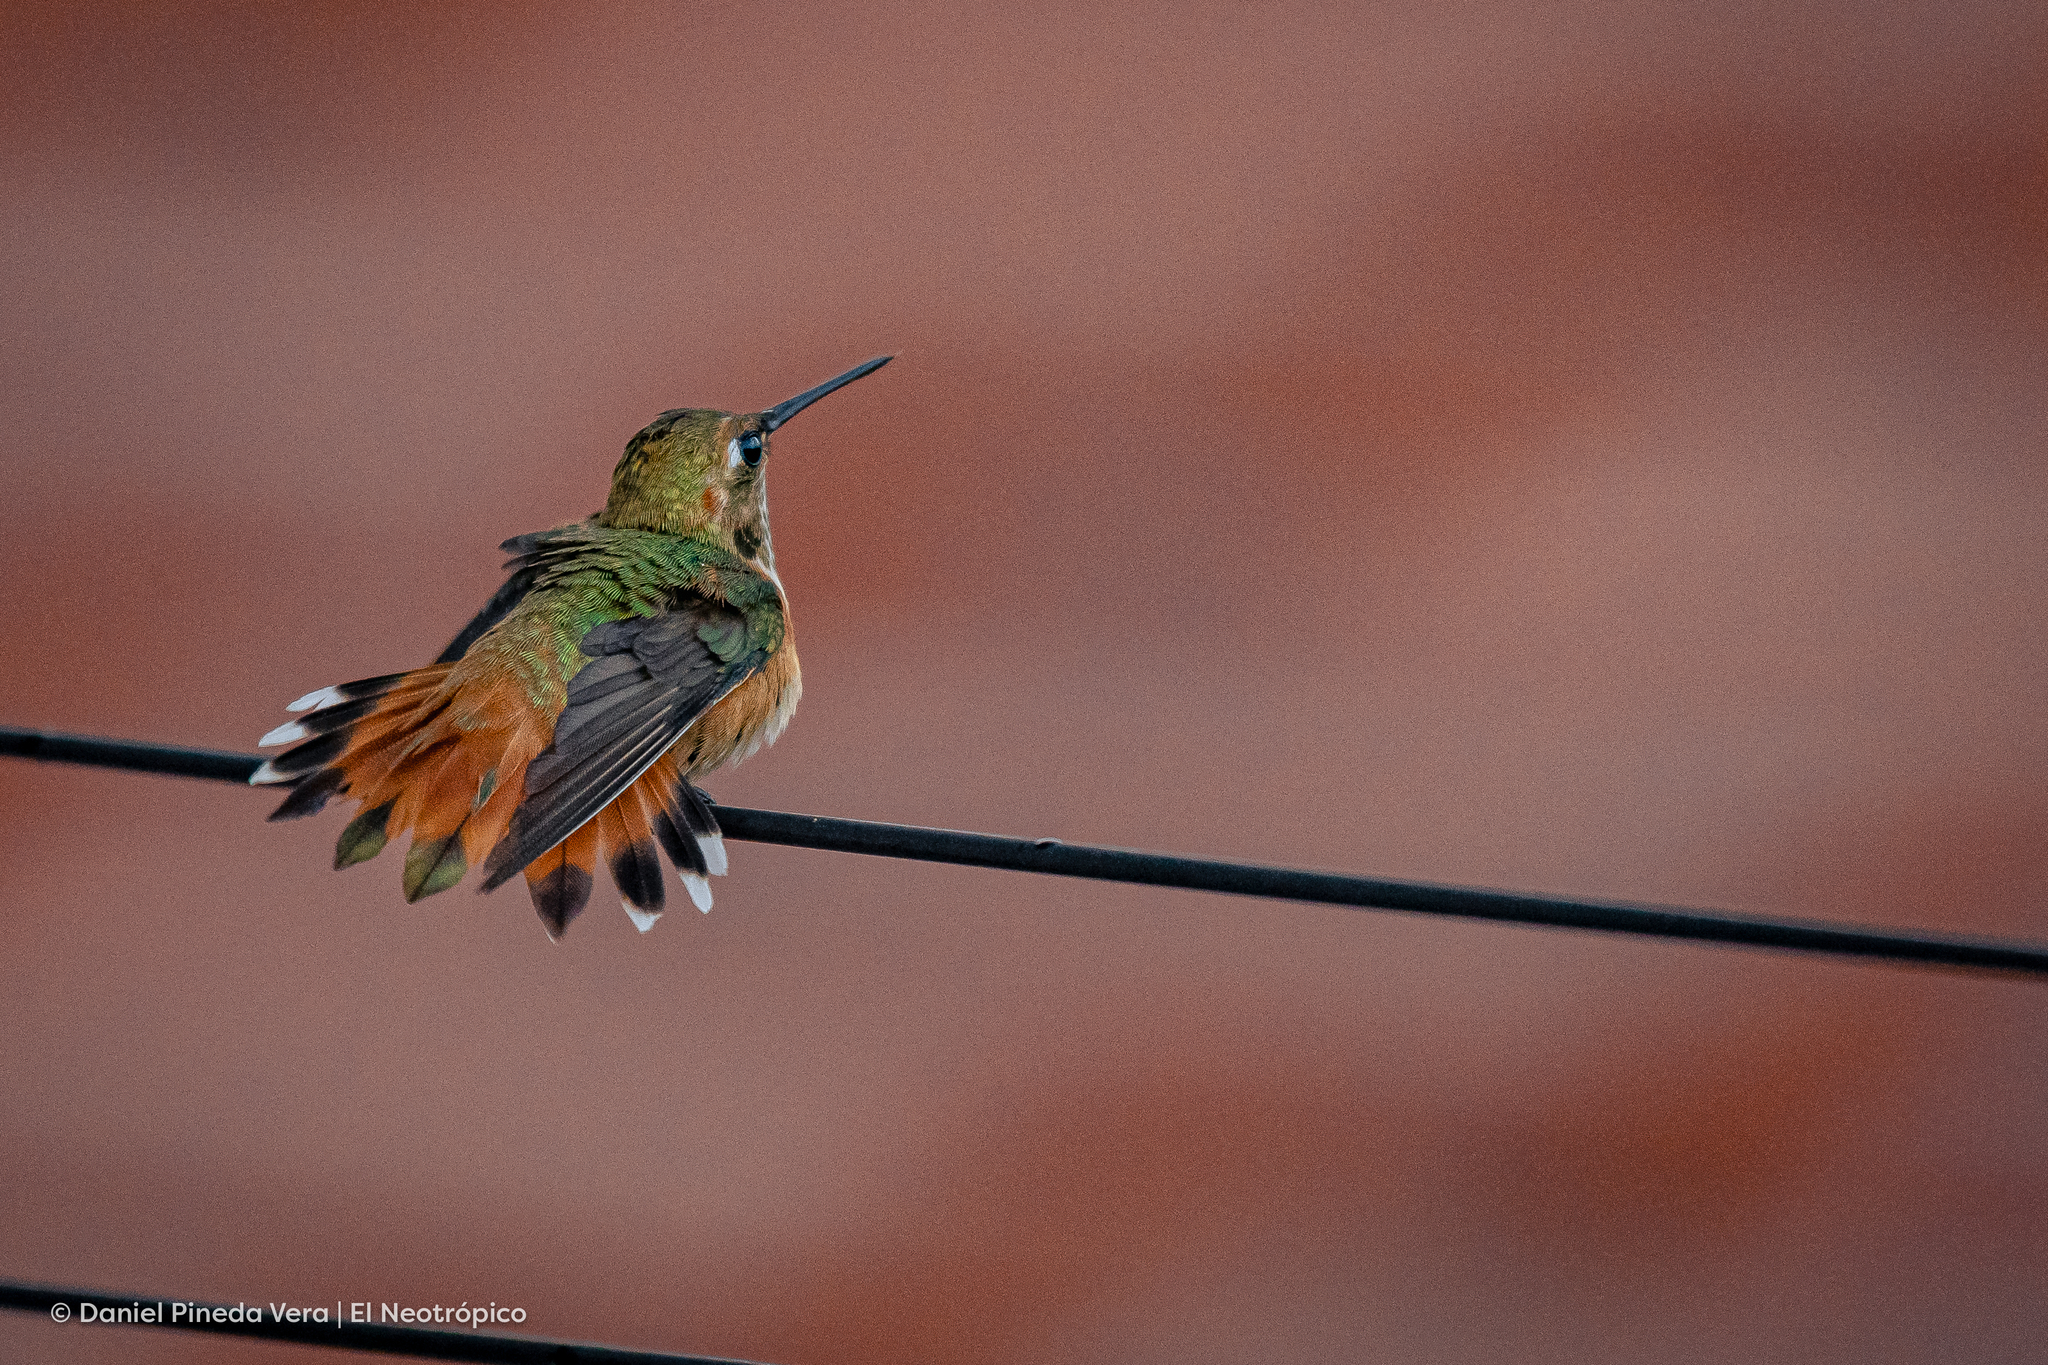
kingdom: Animalia
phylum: Chordata
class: Aves
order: Apodiformes
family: Trochilidae
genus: Selasphorus
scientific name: Selasphorus rufus
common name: Rufous hummingbird
